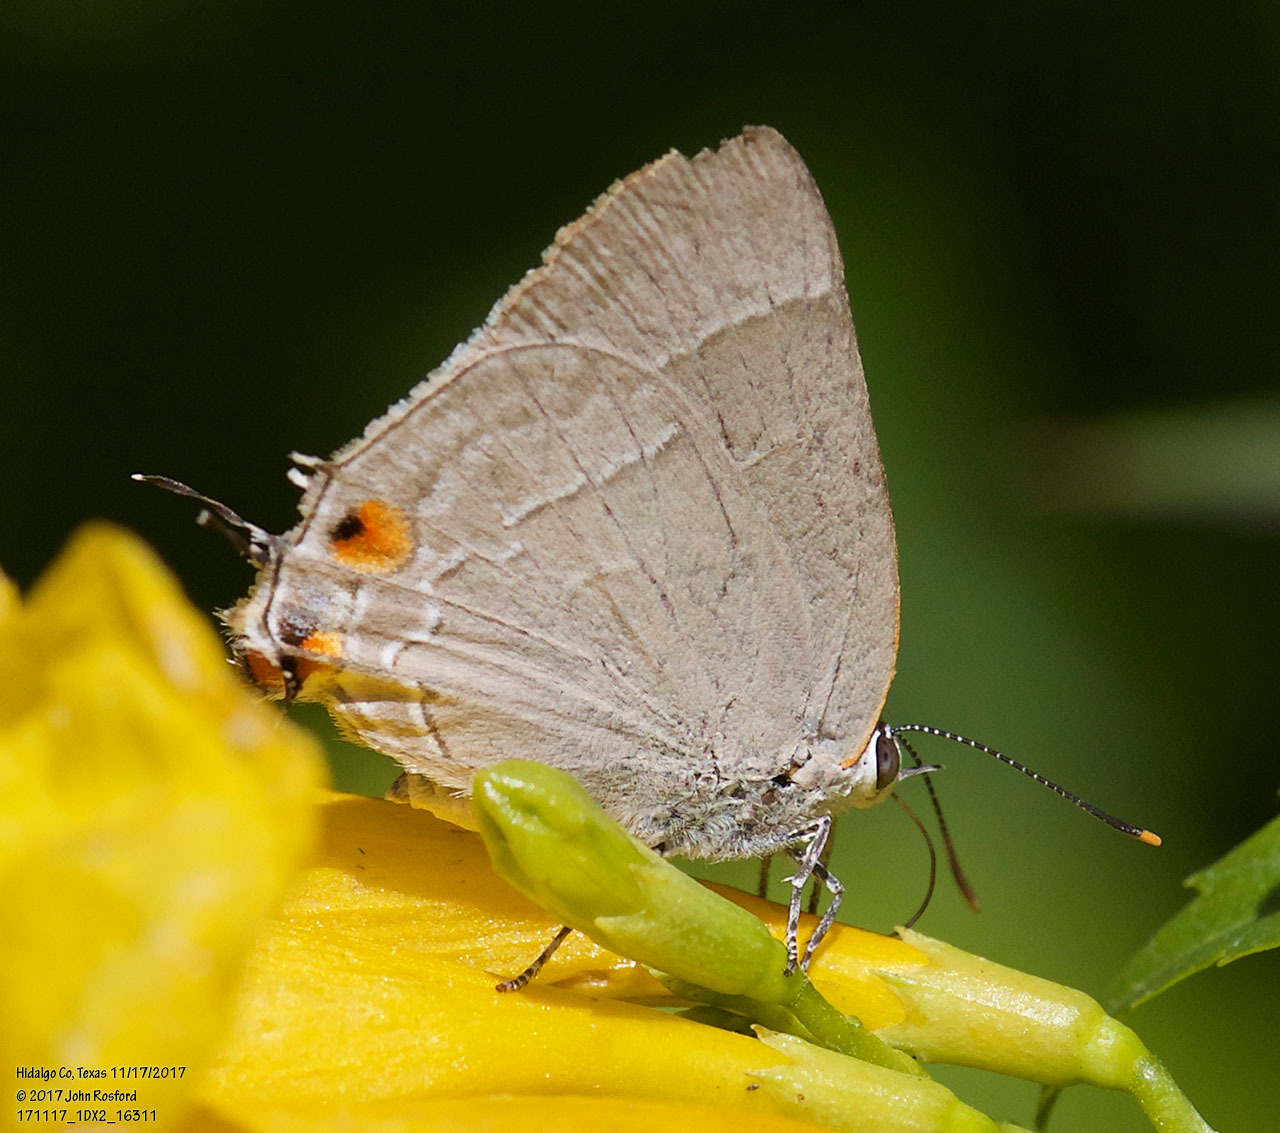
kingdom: Animalia
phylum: Arthropoda
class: Insecta
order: Lepidoptera
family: Lycaenidae
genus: Thecla
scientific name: Thecla marius
